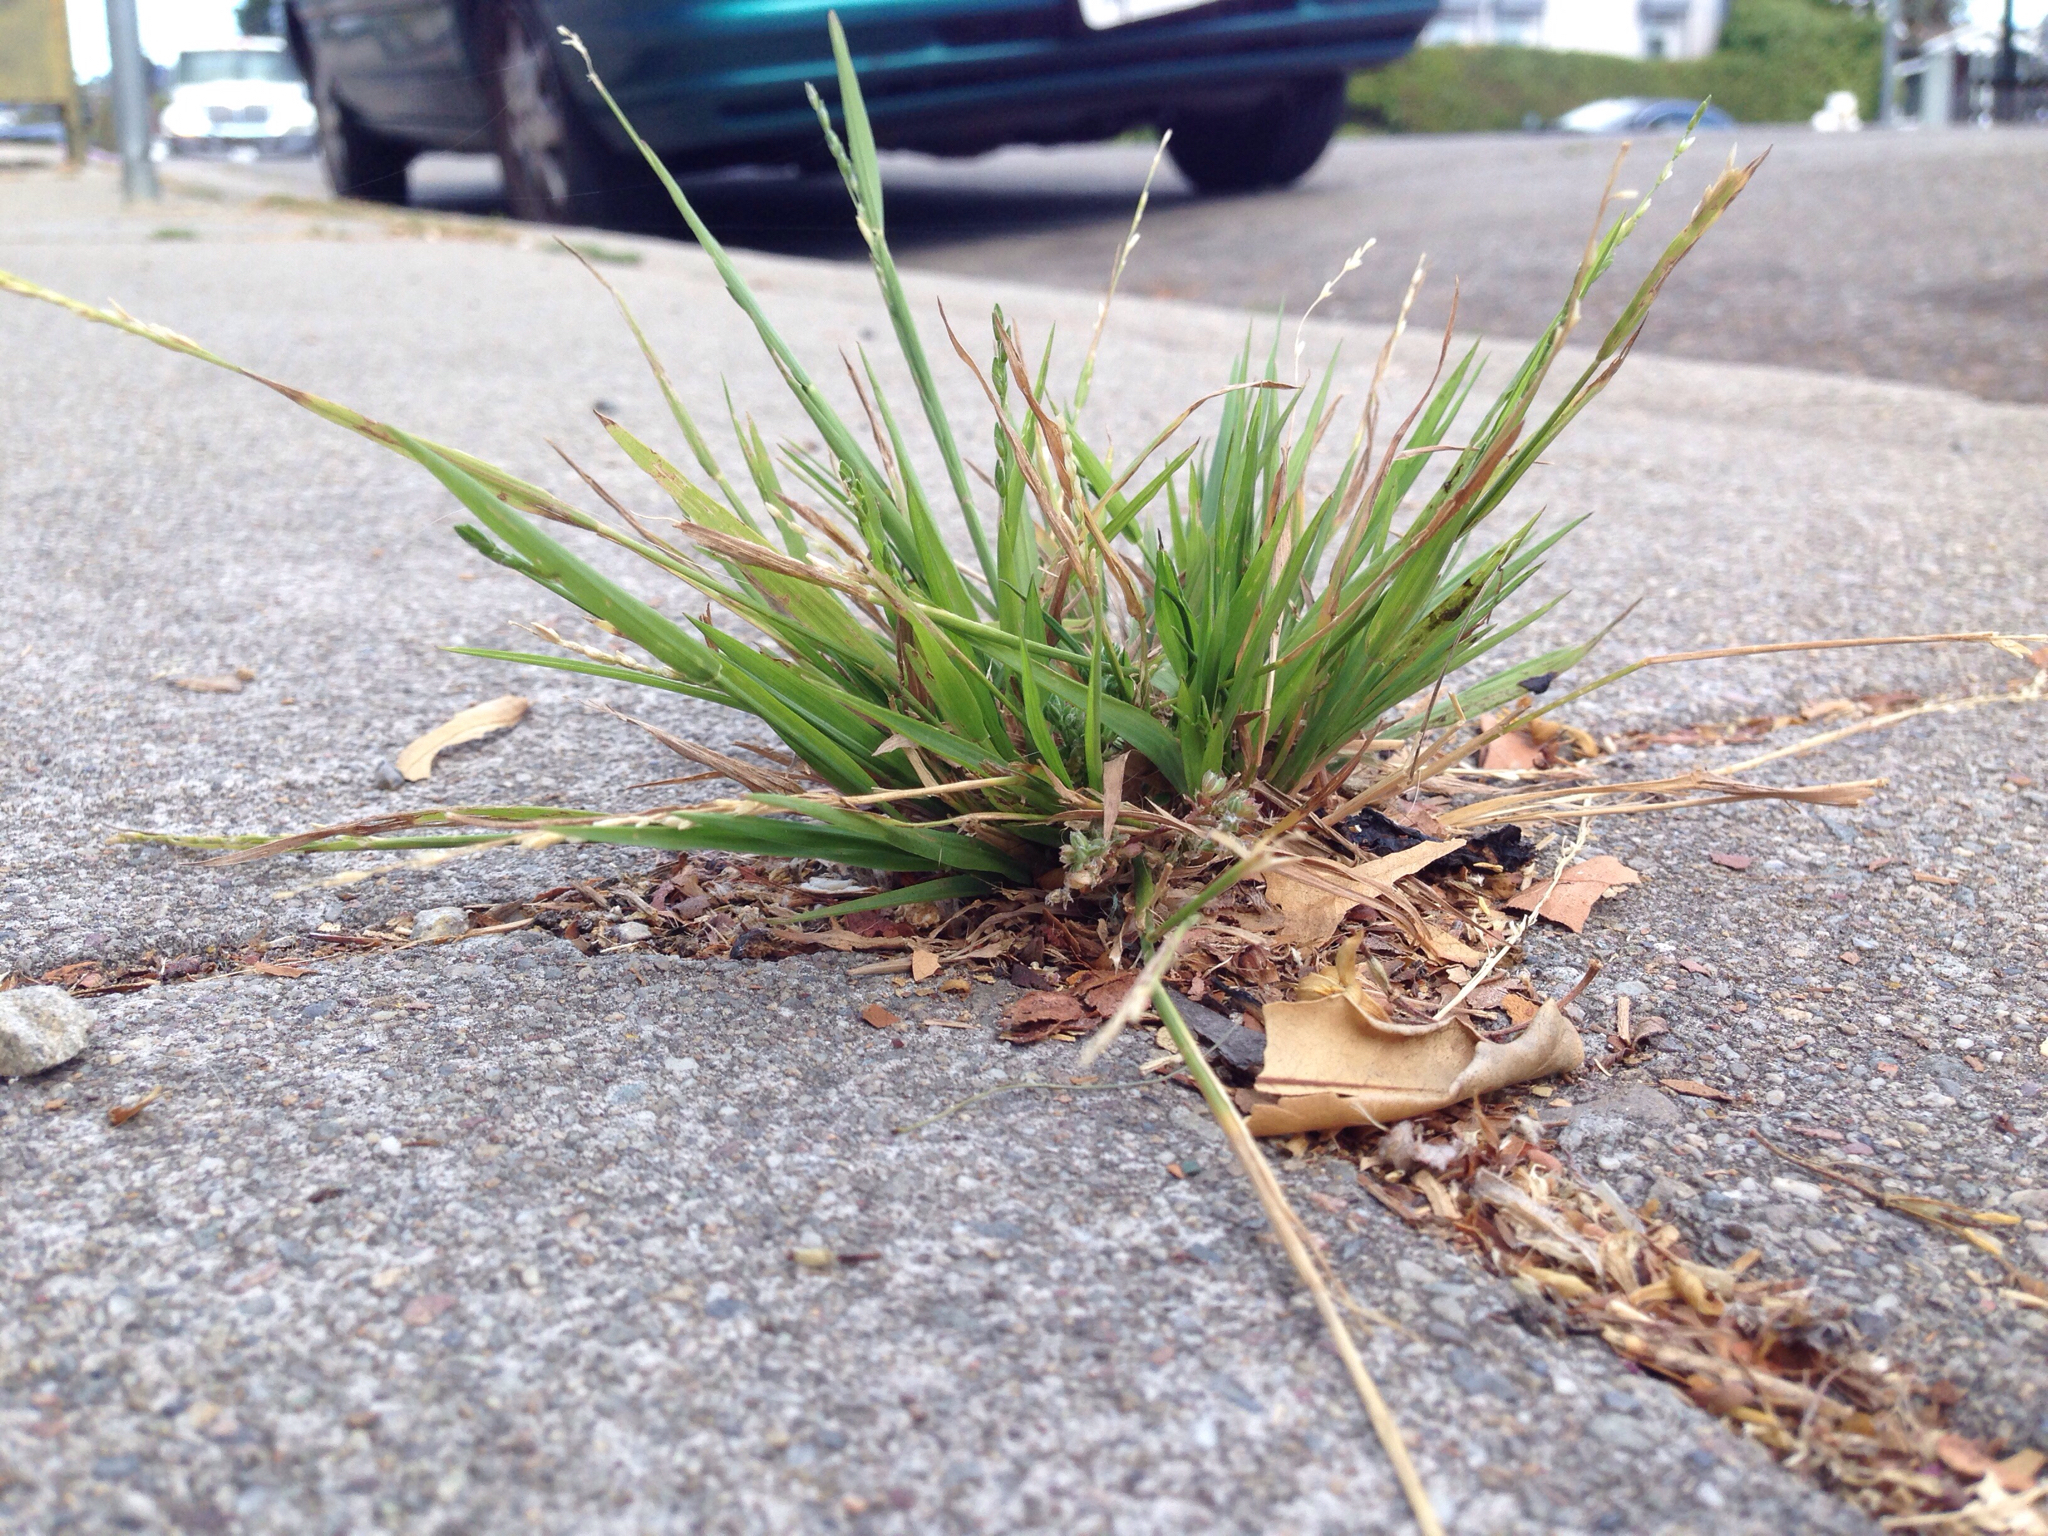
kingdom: Plantae
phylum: Tracheophyta
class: Liliopsida
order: Poales
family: Poaceae
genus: Ehrharta
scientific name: Ehrharta erecta
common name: Panic veldtgrass
